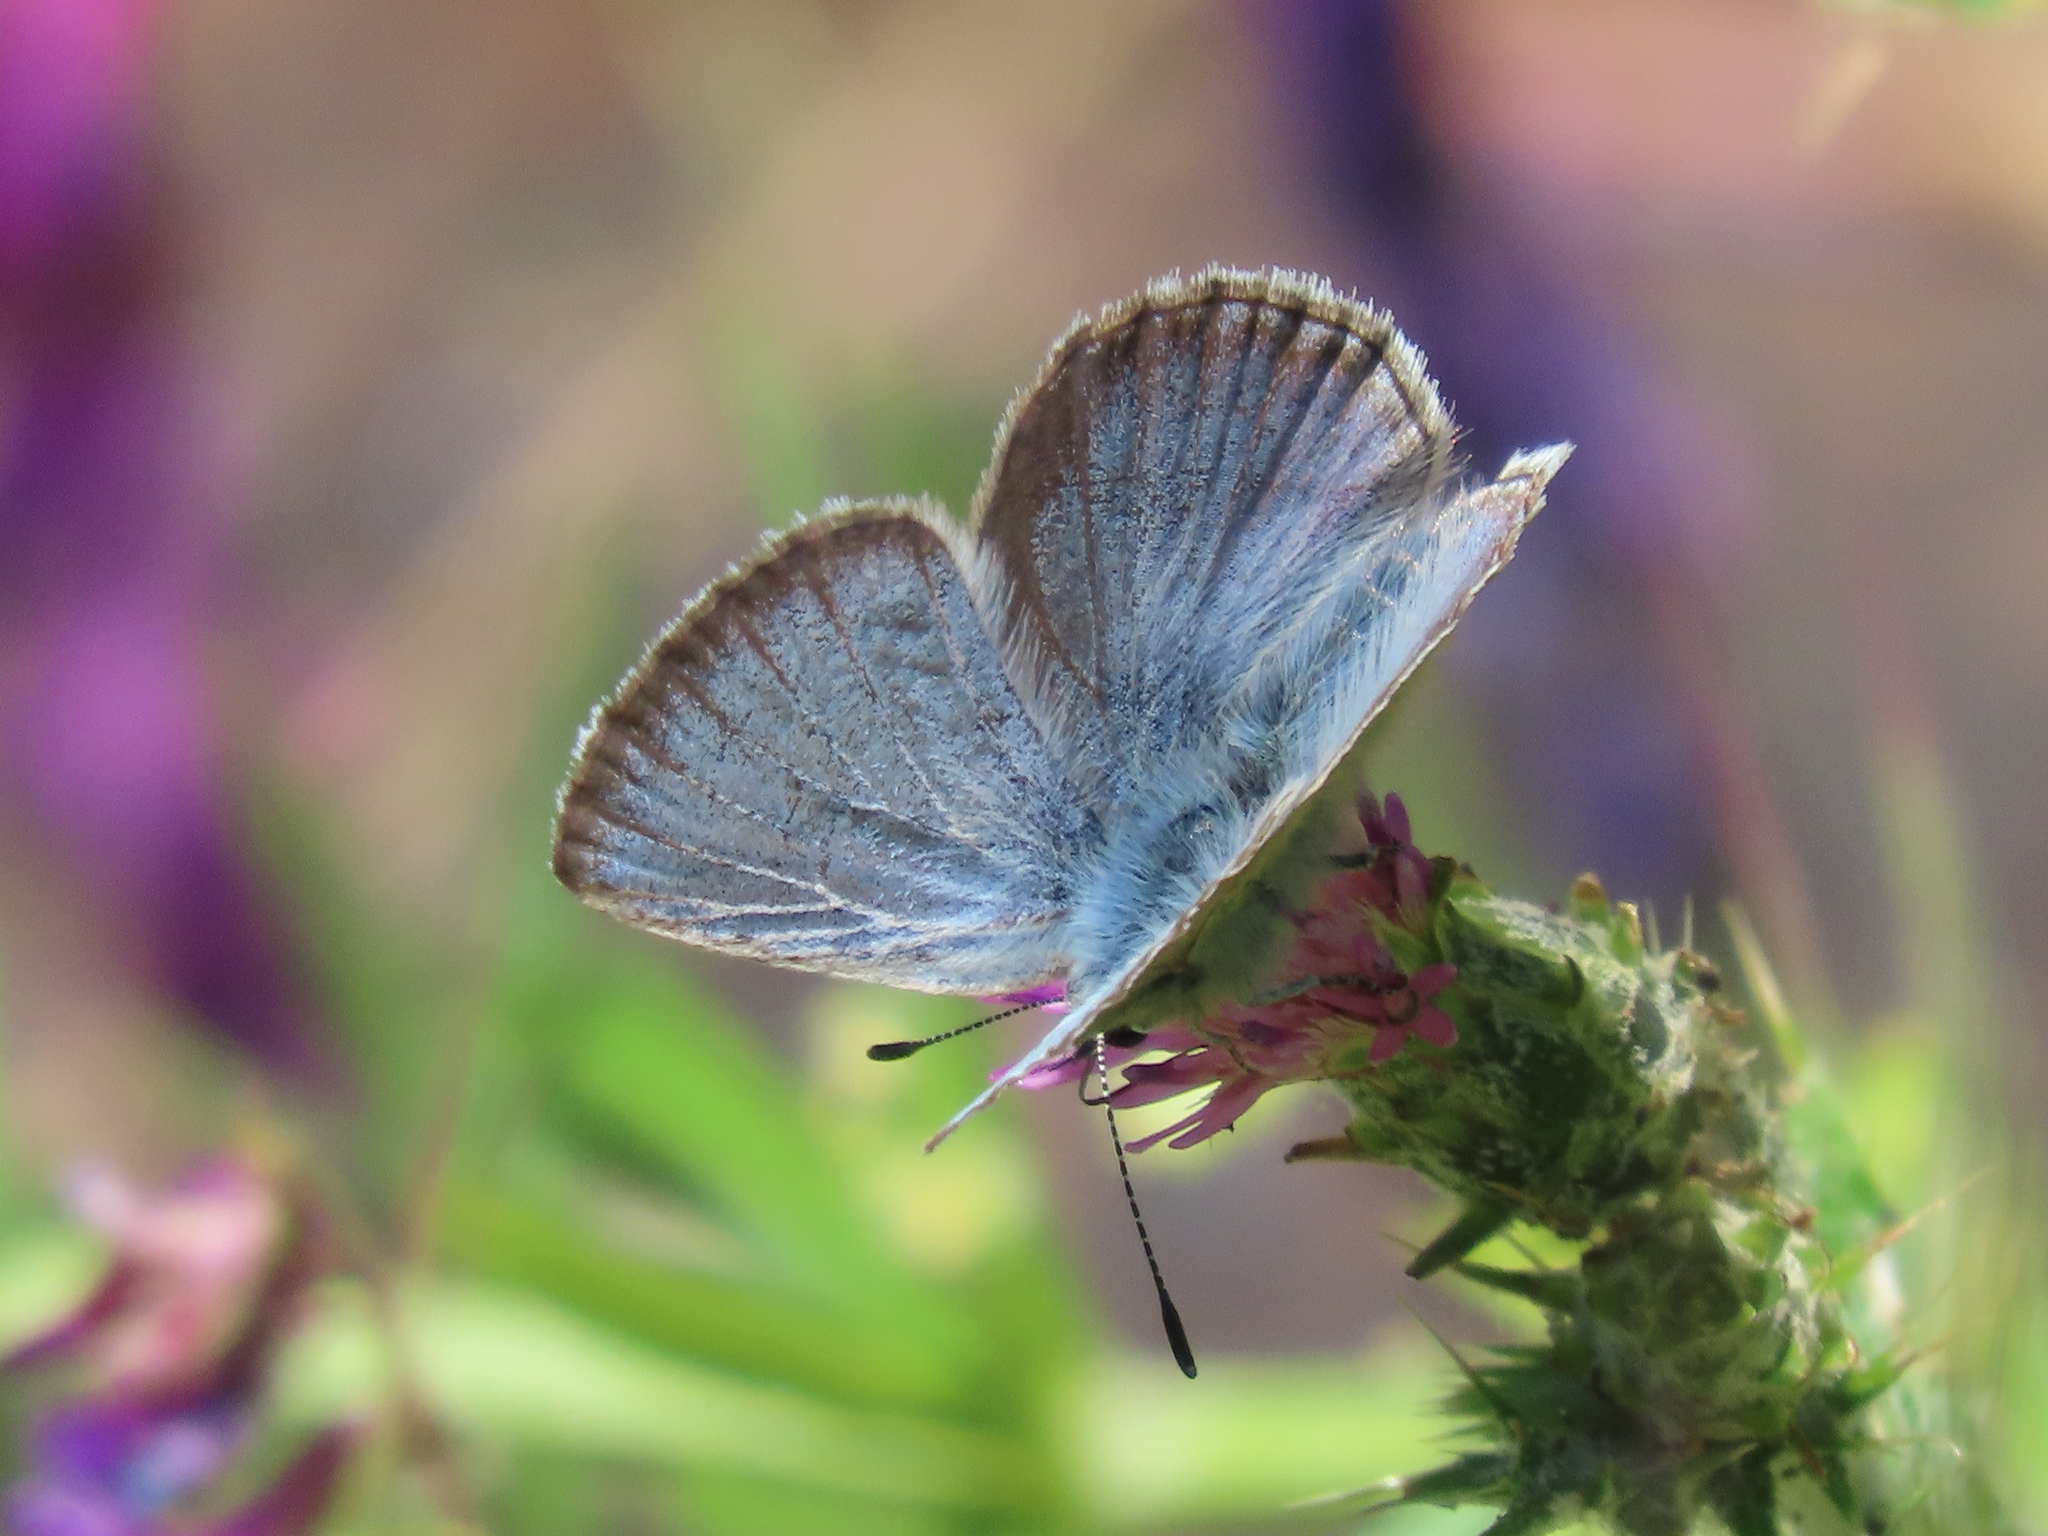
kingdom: Animalia
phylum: Arthropoda
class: Insecta
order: Lepidoptera
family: Lycaenidae
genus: Icaricia
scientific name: Icaricia icarioides
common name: Boisduval's blue
